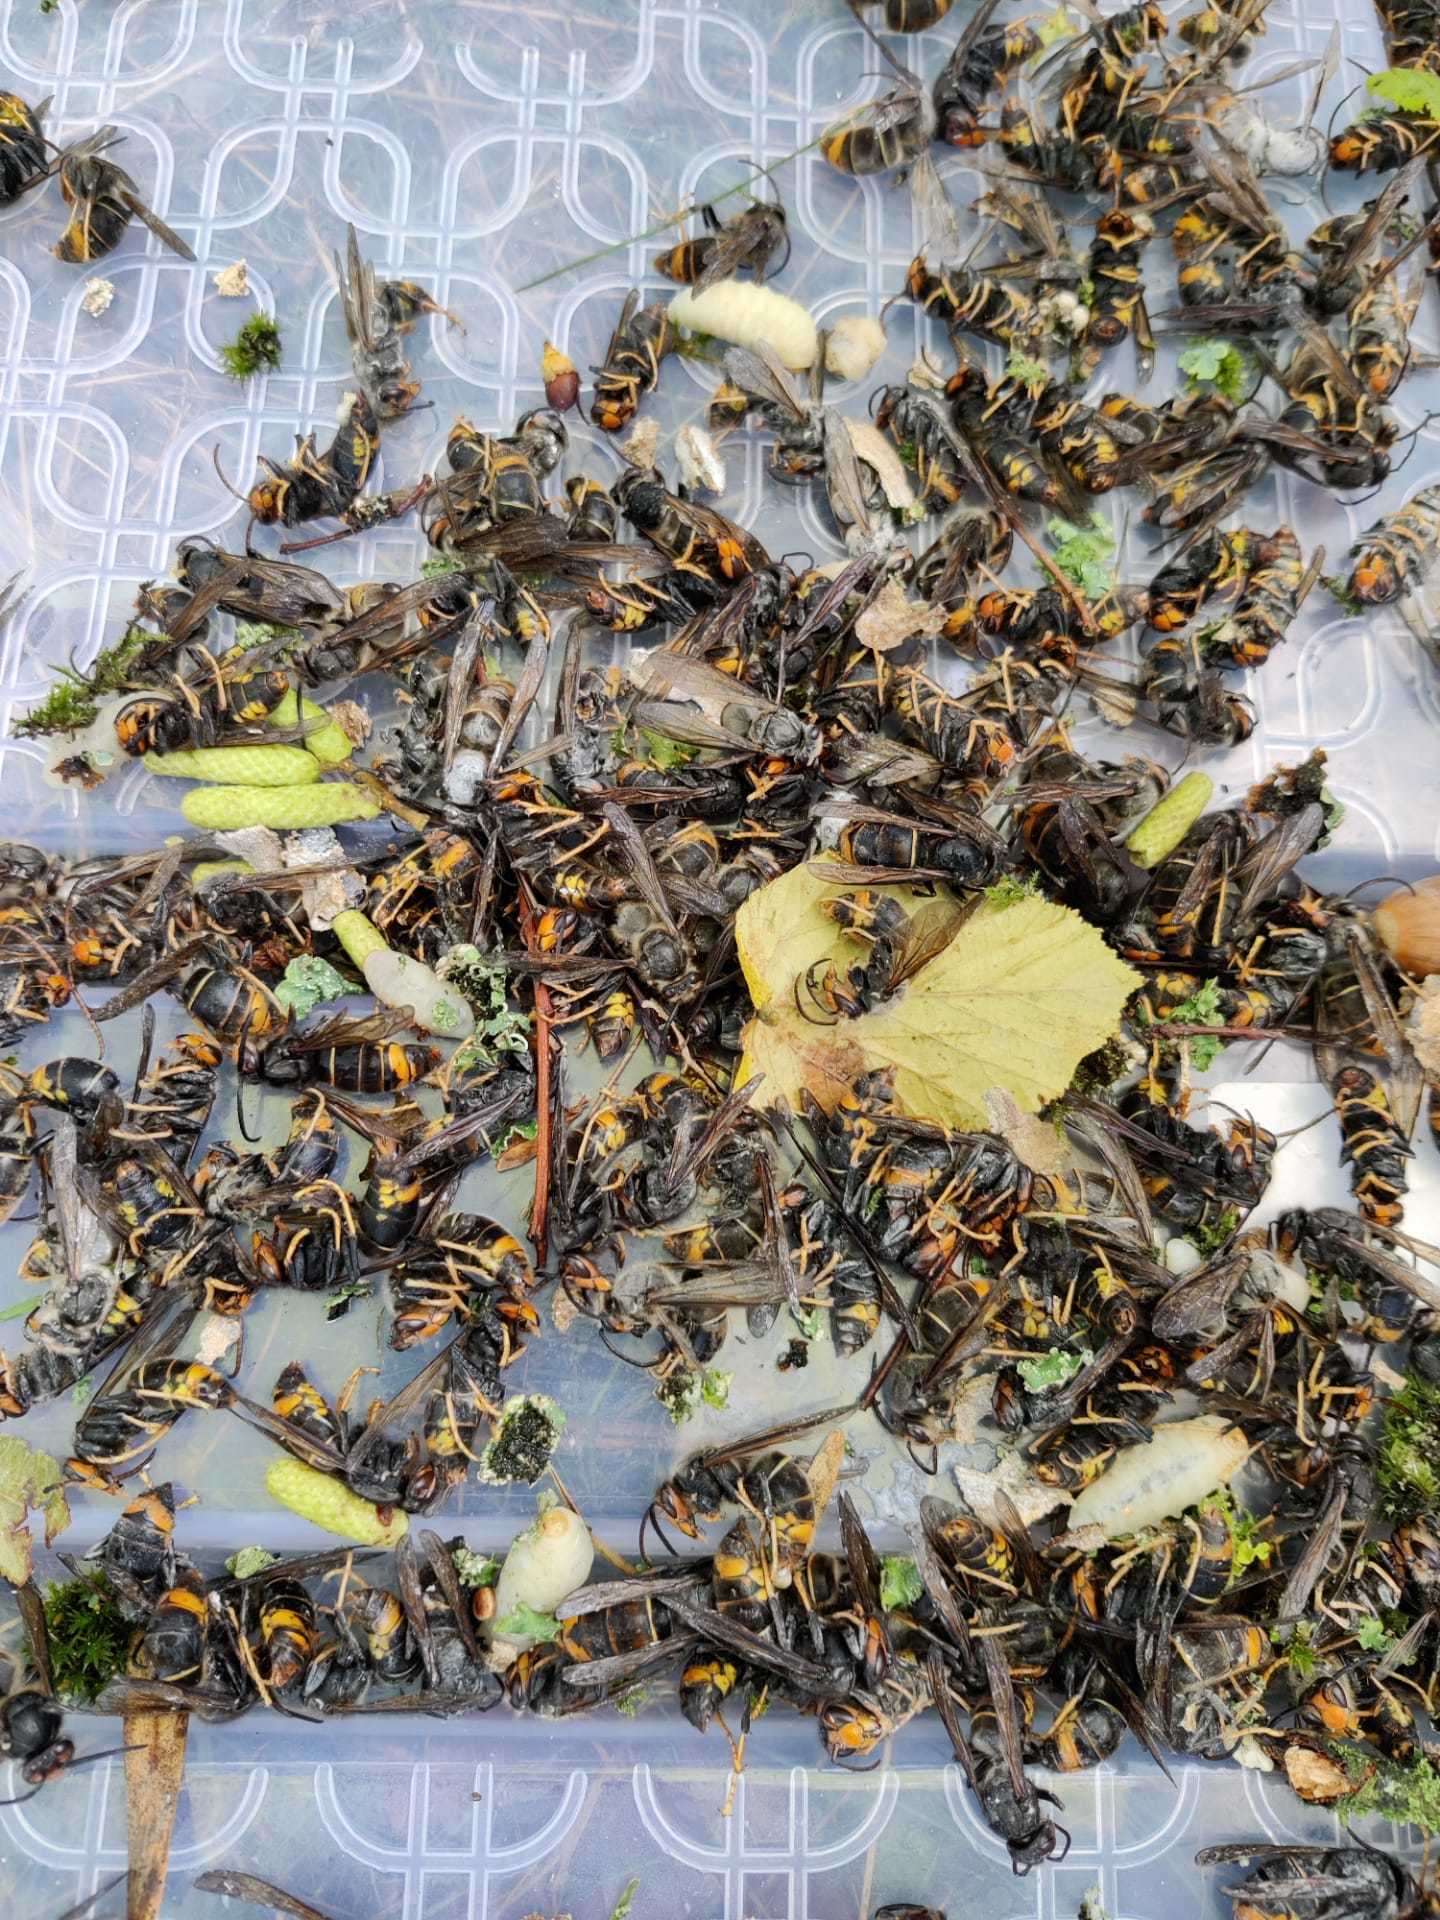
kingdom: Animalia
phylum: Arthropoda
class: Insecta
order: Hymenoptera
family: Vespidae
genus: Vespa
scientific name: Vespa velutina
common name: Asian hornet
